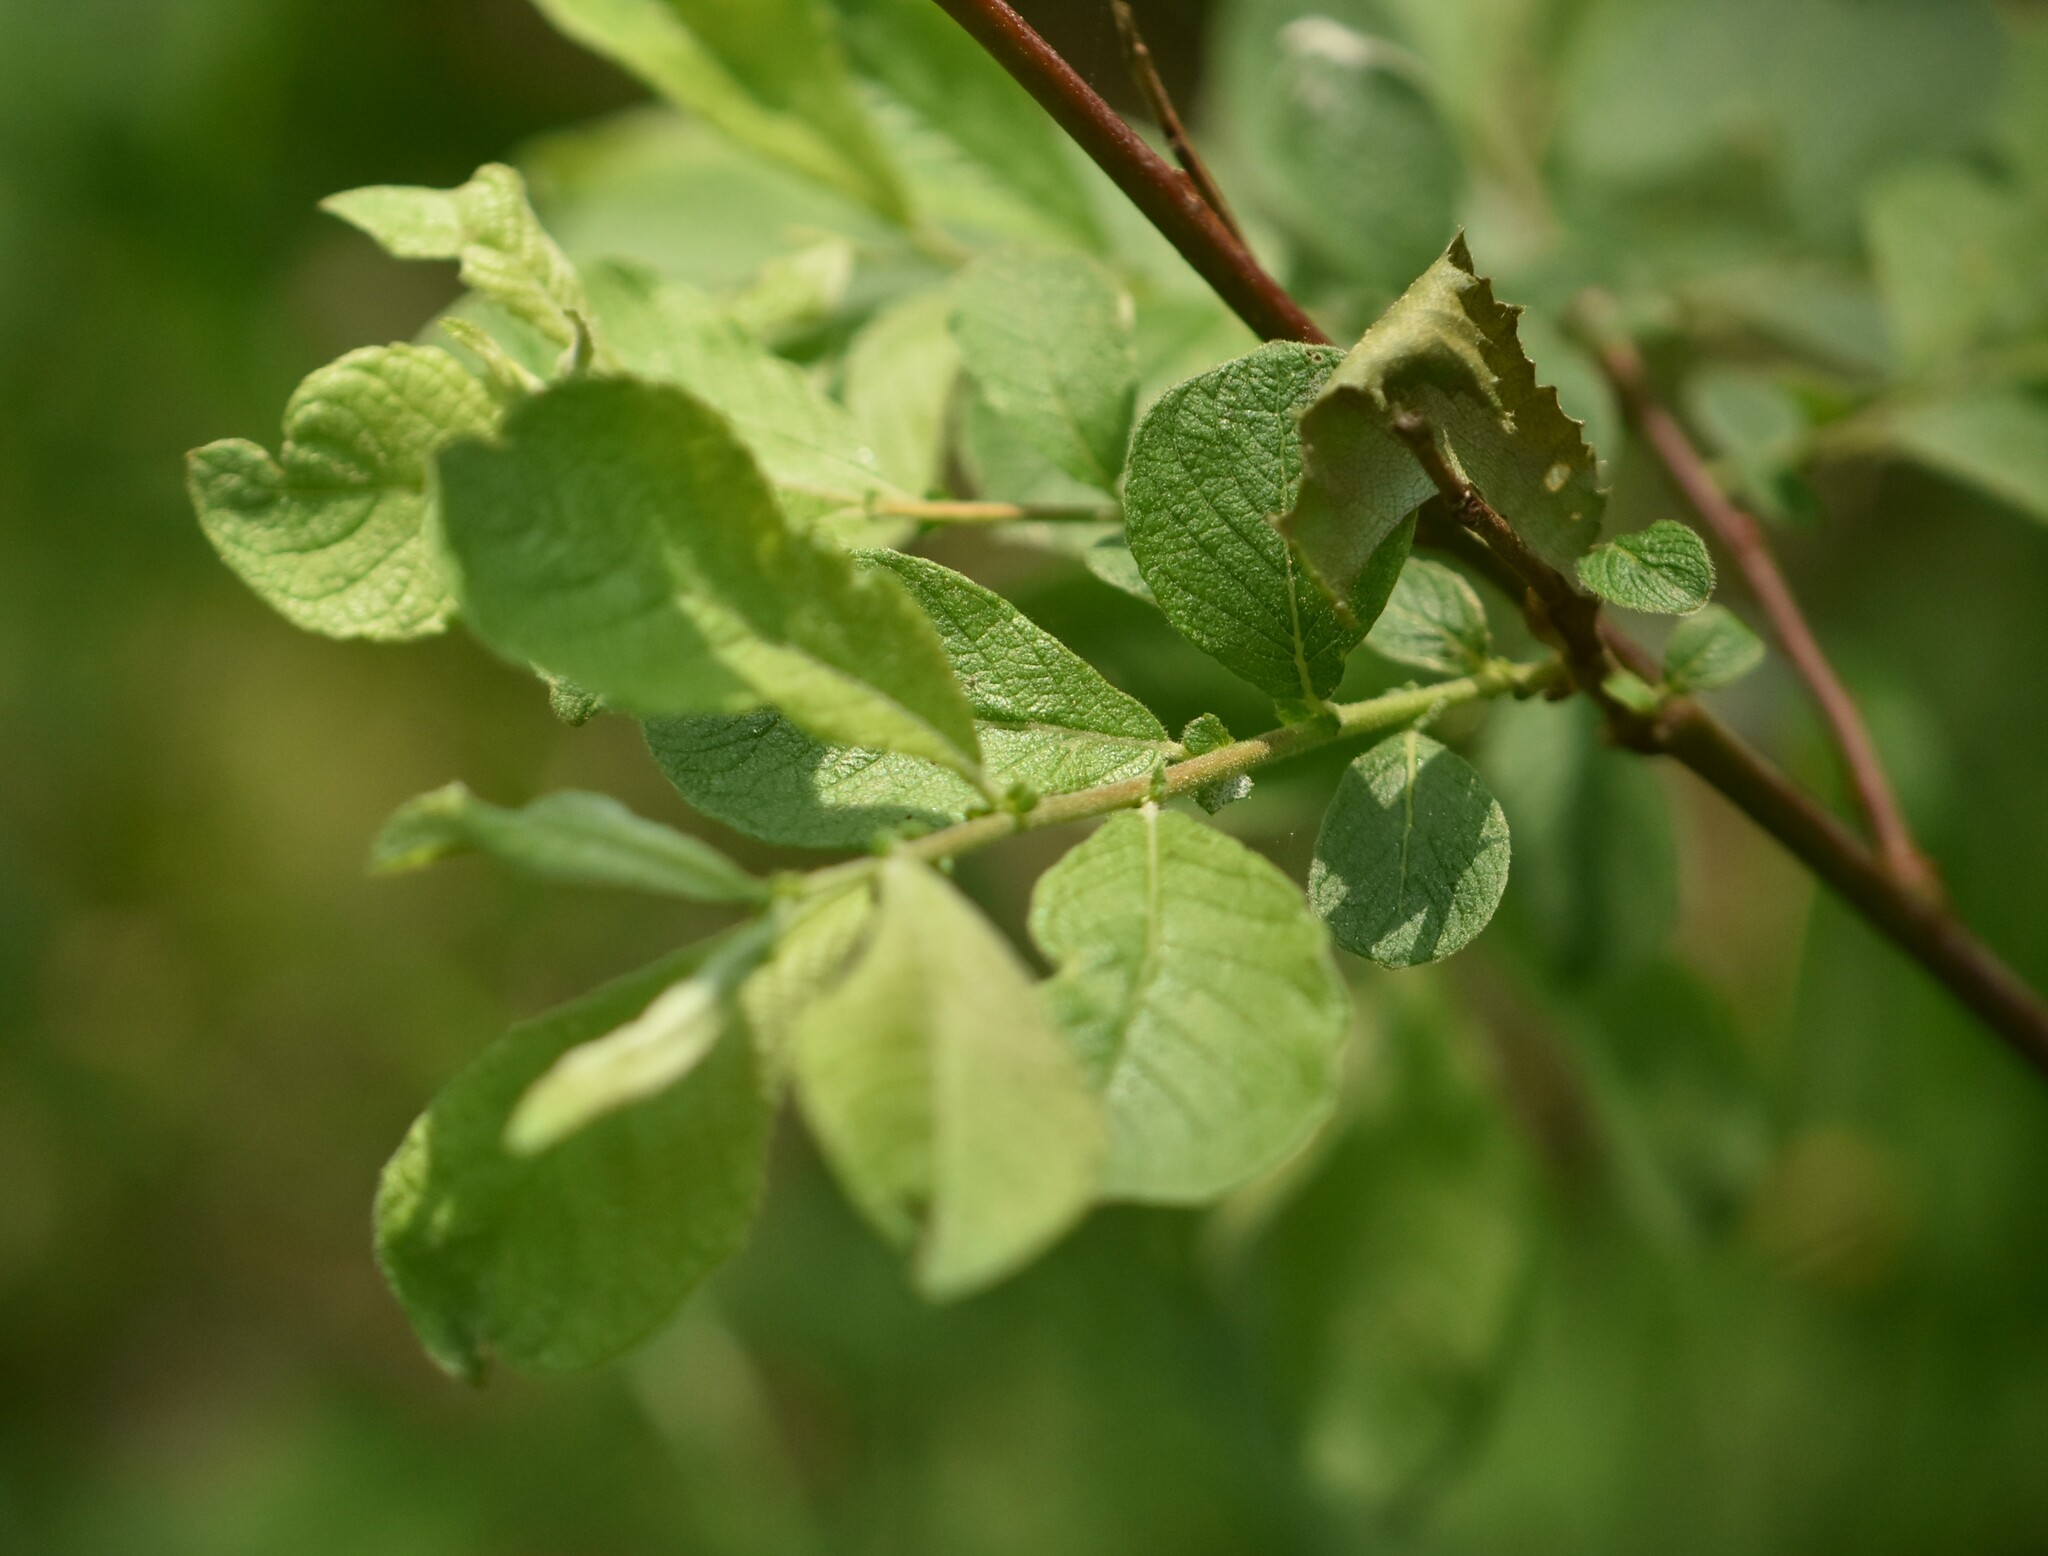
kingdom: Plantae
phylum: Tracheophyta
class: Magnoliopsida
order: Malpighiales
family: Salicaceae
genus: Salix
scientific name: Salix aurita
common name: Eared willow
